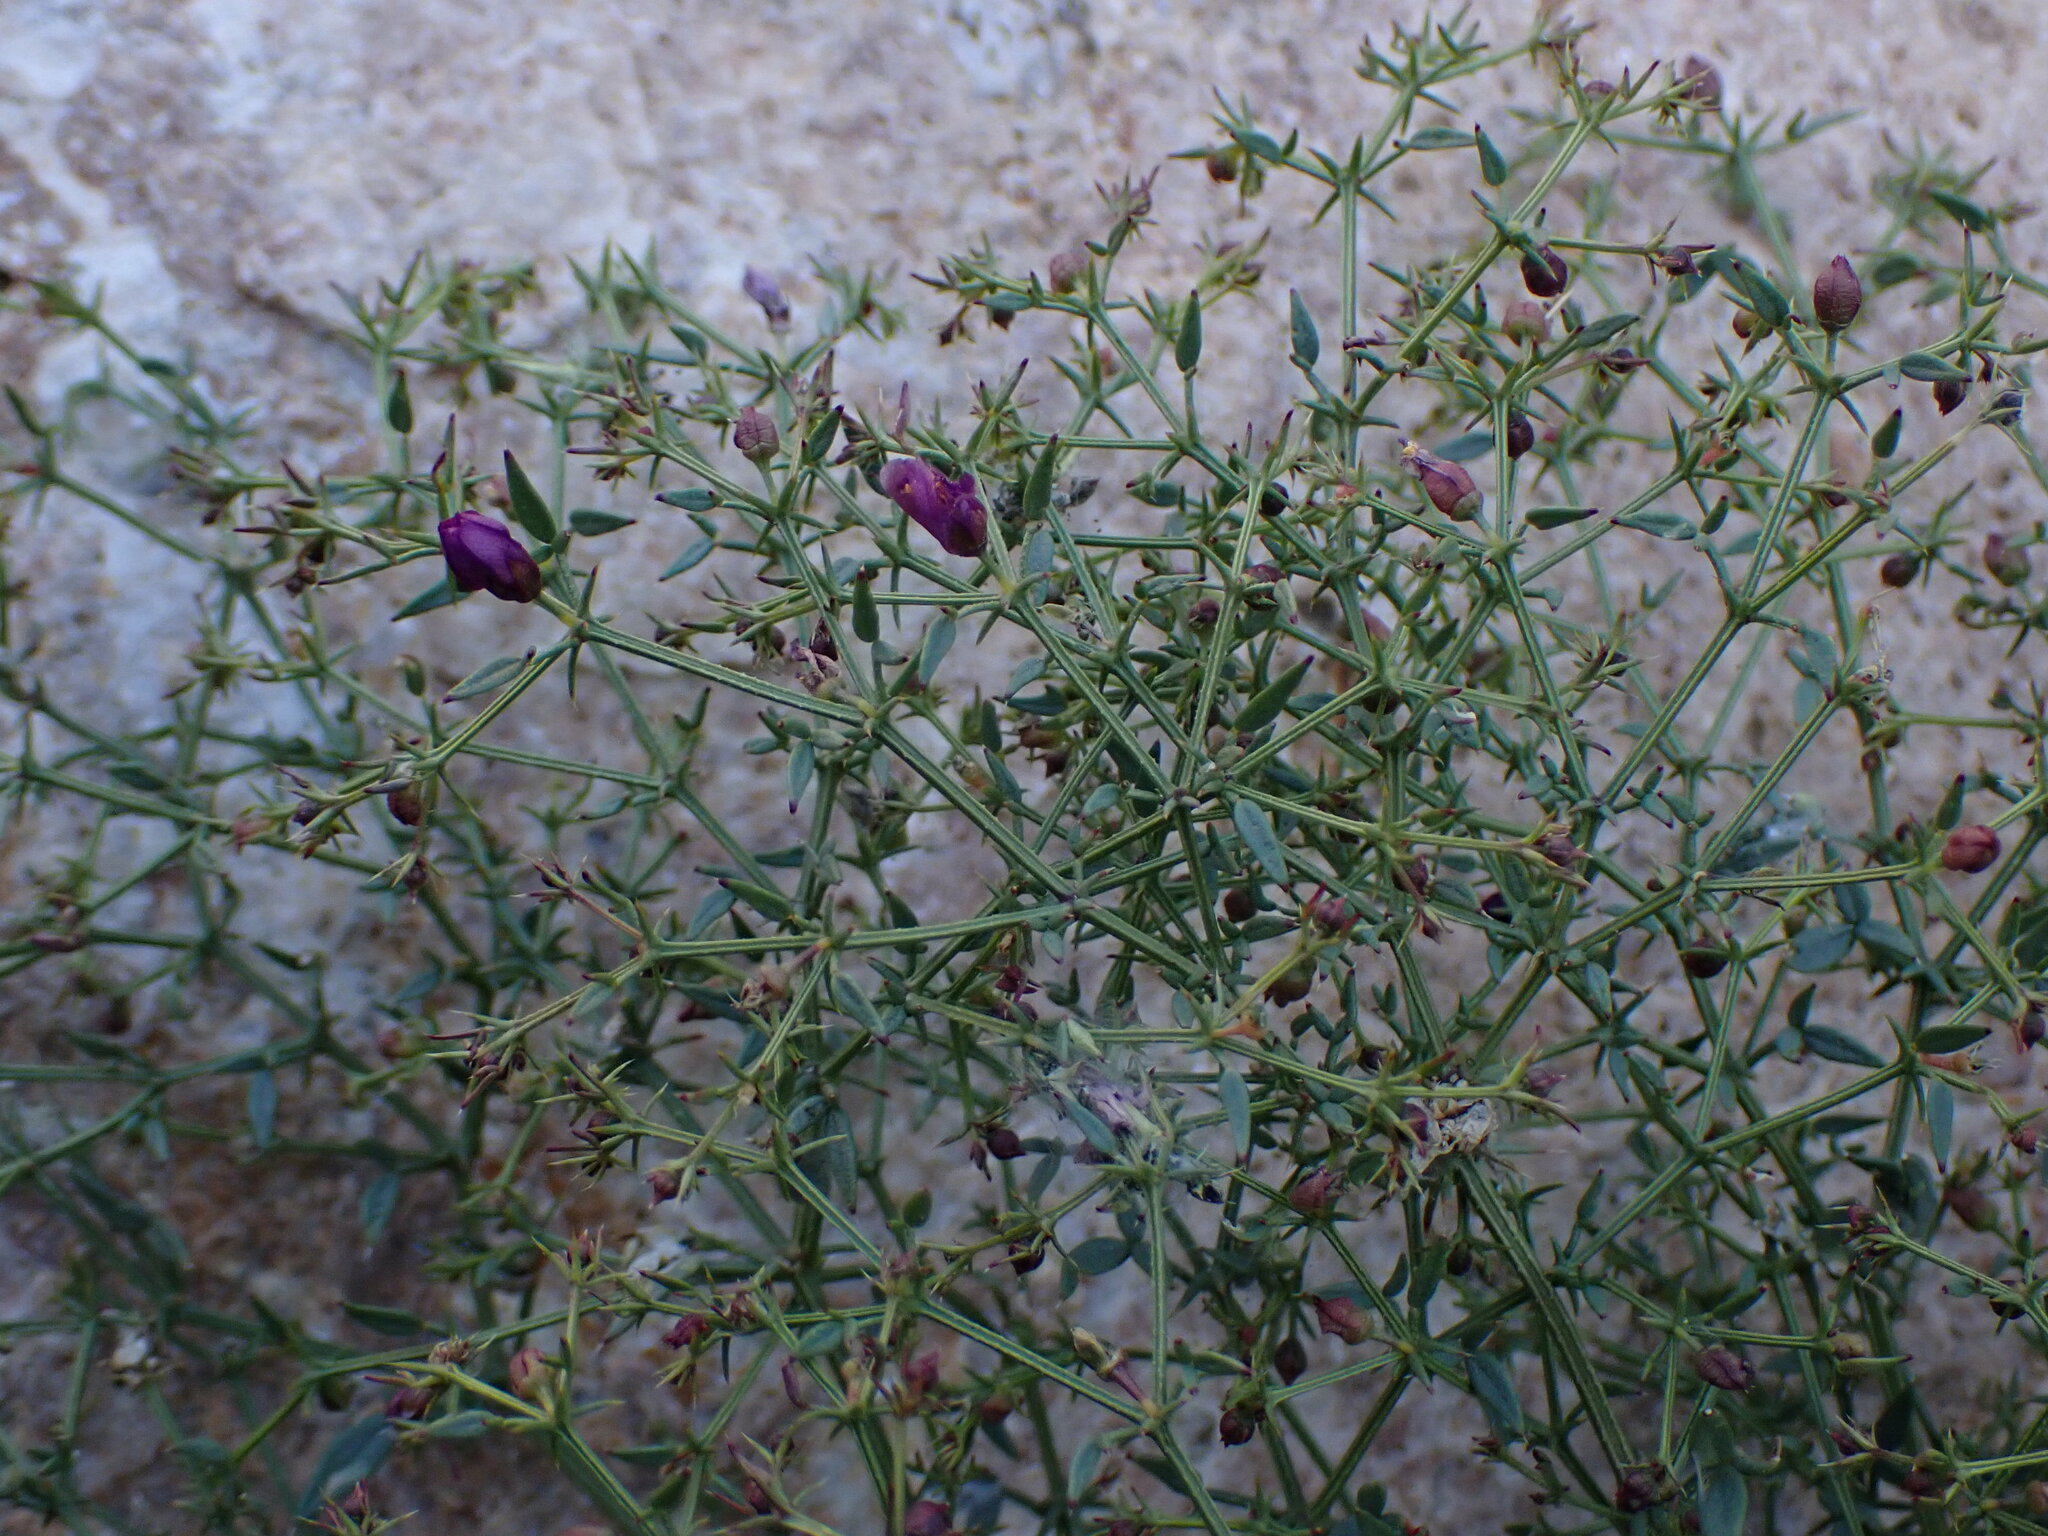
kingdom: Plantae
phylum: Tracheophyta
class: Magnoliopsida
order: Zygophyllales
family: Zygophyllaceae
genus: Fagonia
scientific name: Fagonia laevis
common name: California fagonbush
